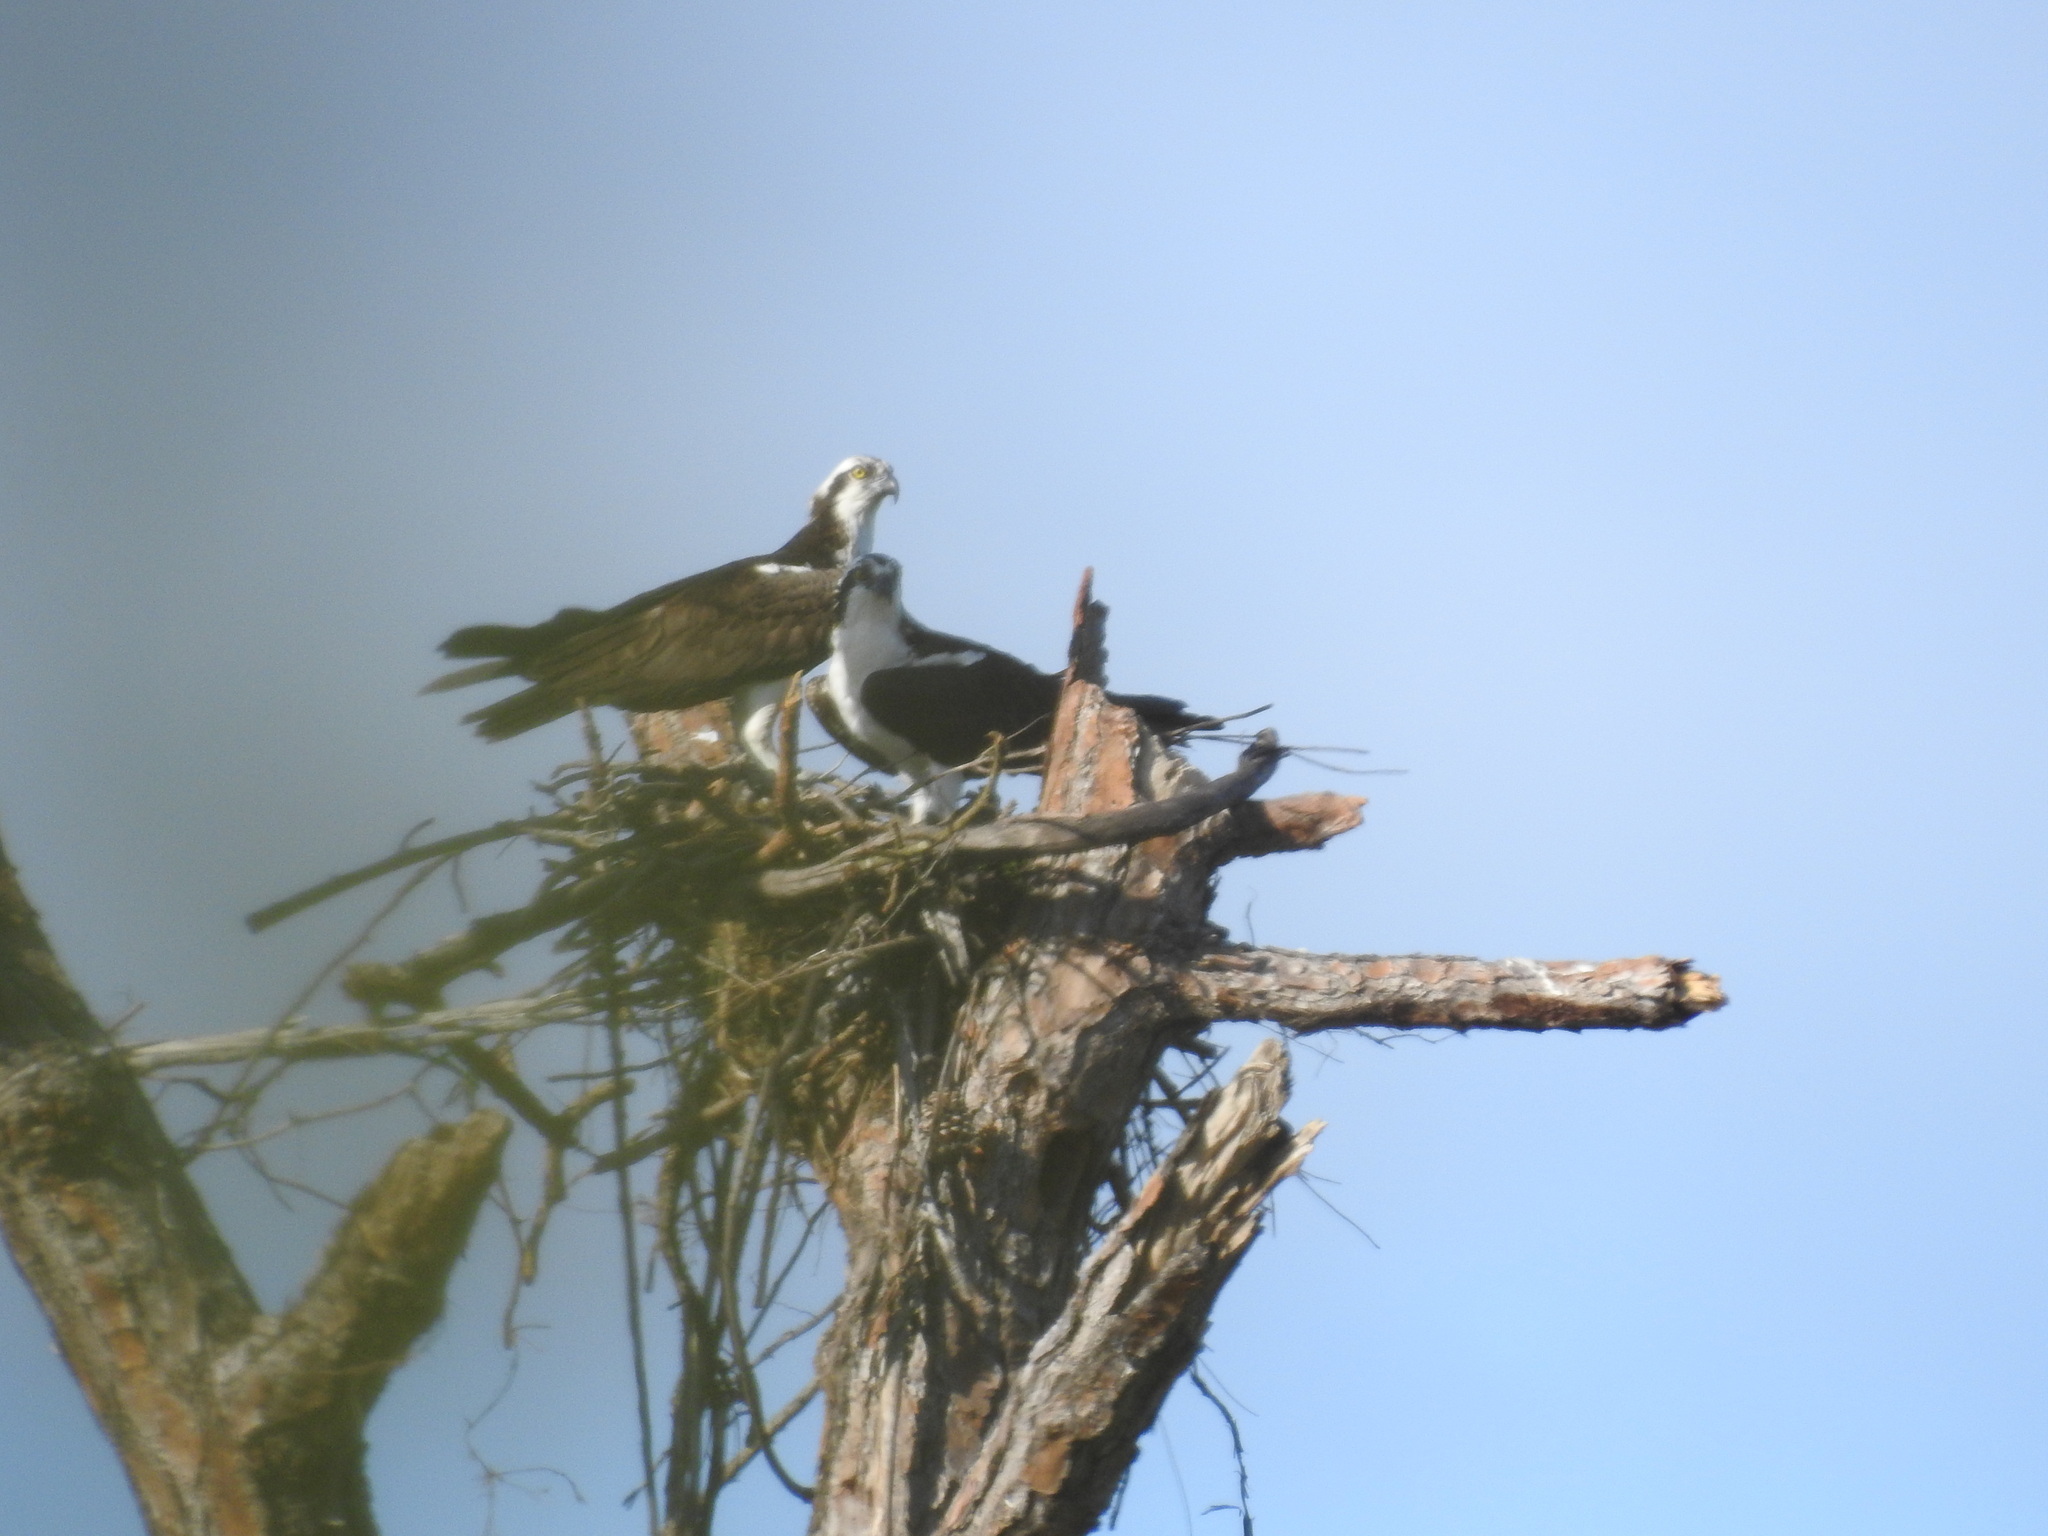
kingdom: Animalia
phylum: Chordata
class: Aves
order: Accipitriformes
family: Pandionidae
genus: Pandion
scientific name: Pandion haliaetus
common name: Osprey
